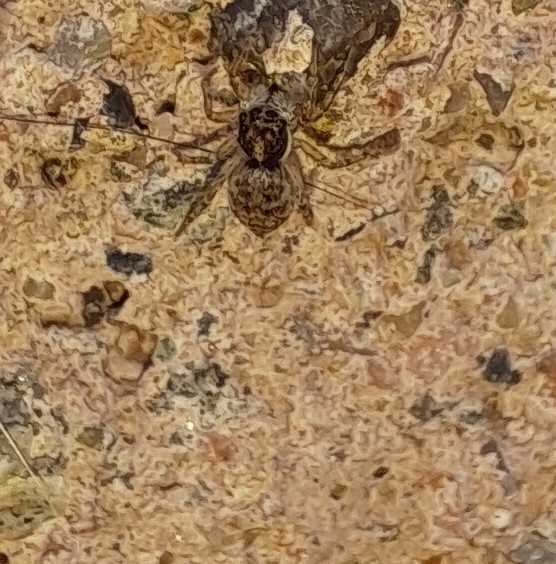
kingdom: Animalia
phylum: Arthropoda
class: Arachnida
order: Araneae
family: Salticidae
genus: Menemerus
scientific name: Menemerus semilimbatus
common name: Jumping spider
